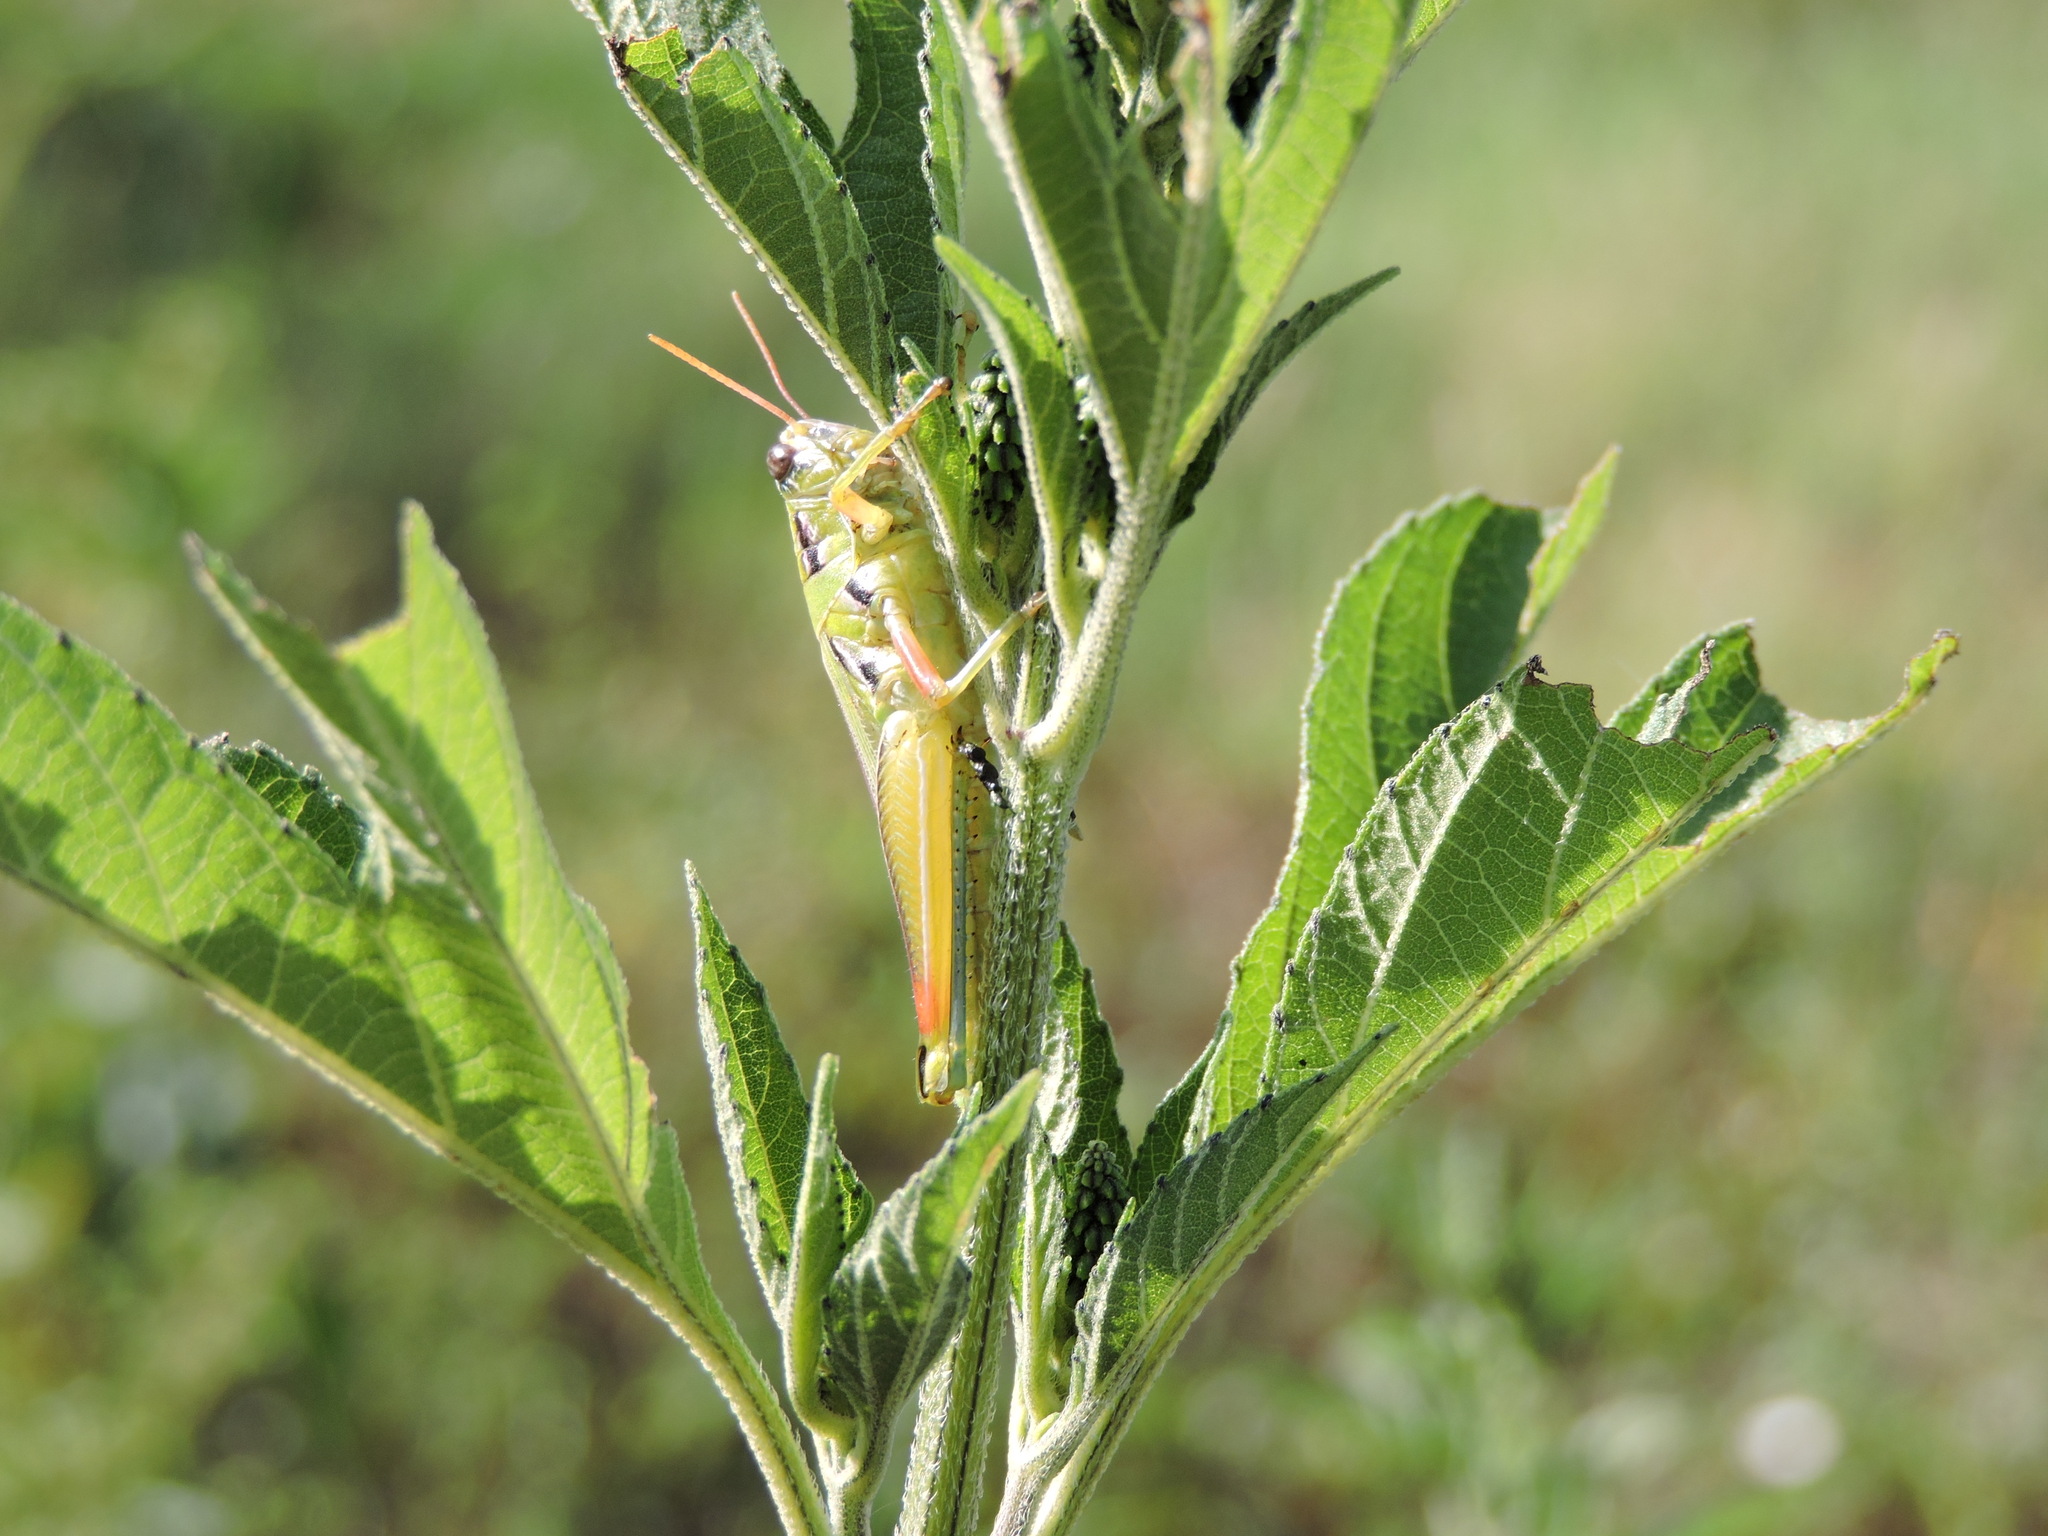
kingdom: Animalia
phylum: Arthropoda
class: Insecta
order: Orthoptera
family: Acrididae
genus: Hesperotettix
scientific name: Hesperotettix viridis
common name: Meadow purple-striped grasshopper
